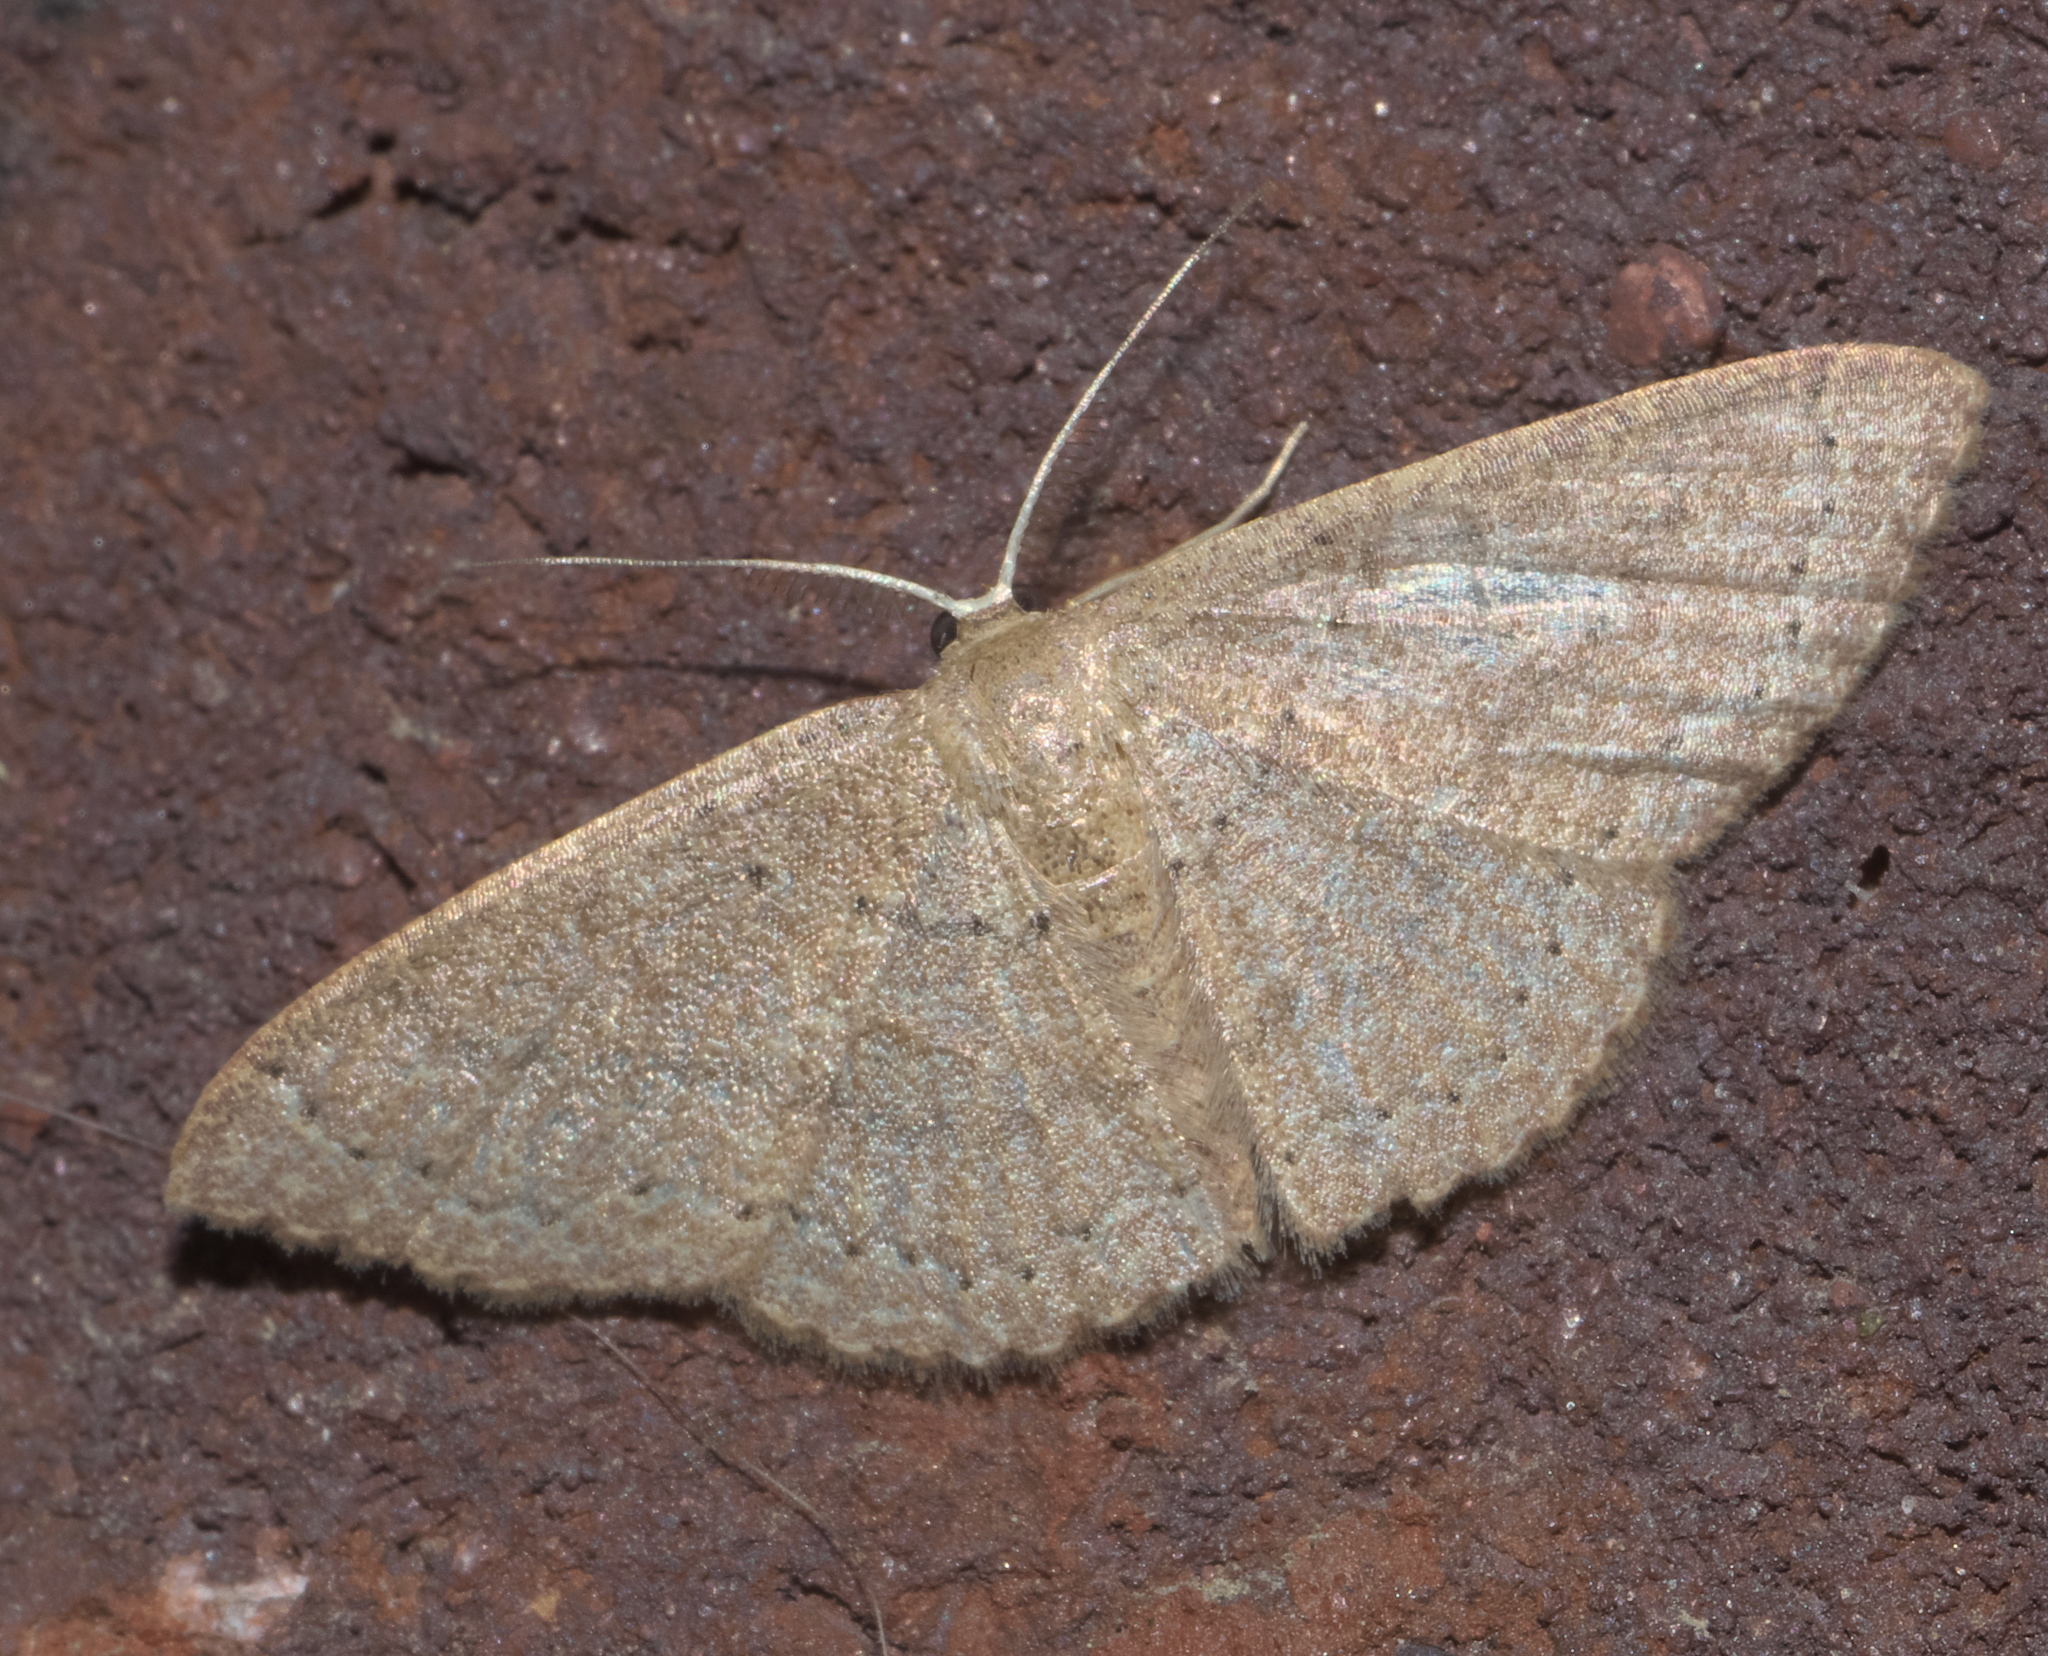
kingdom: Animalia
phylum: Arthropoda
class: Insecta
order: Lepidoptera
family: Geometridae
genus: Pleuroprucha
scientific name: Pleuroprucha insulsaria
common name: Common tan wave
